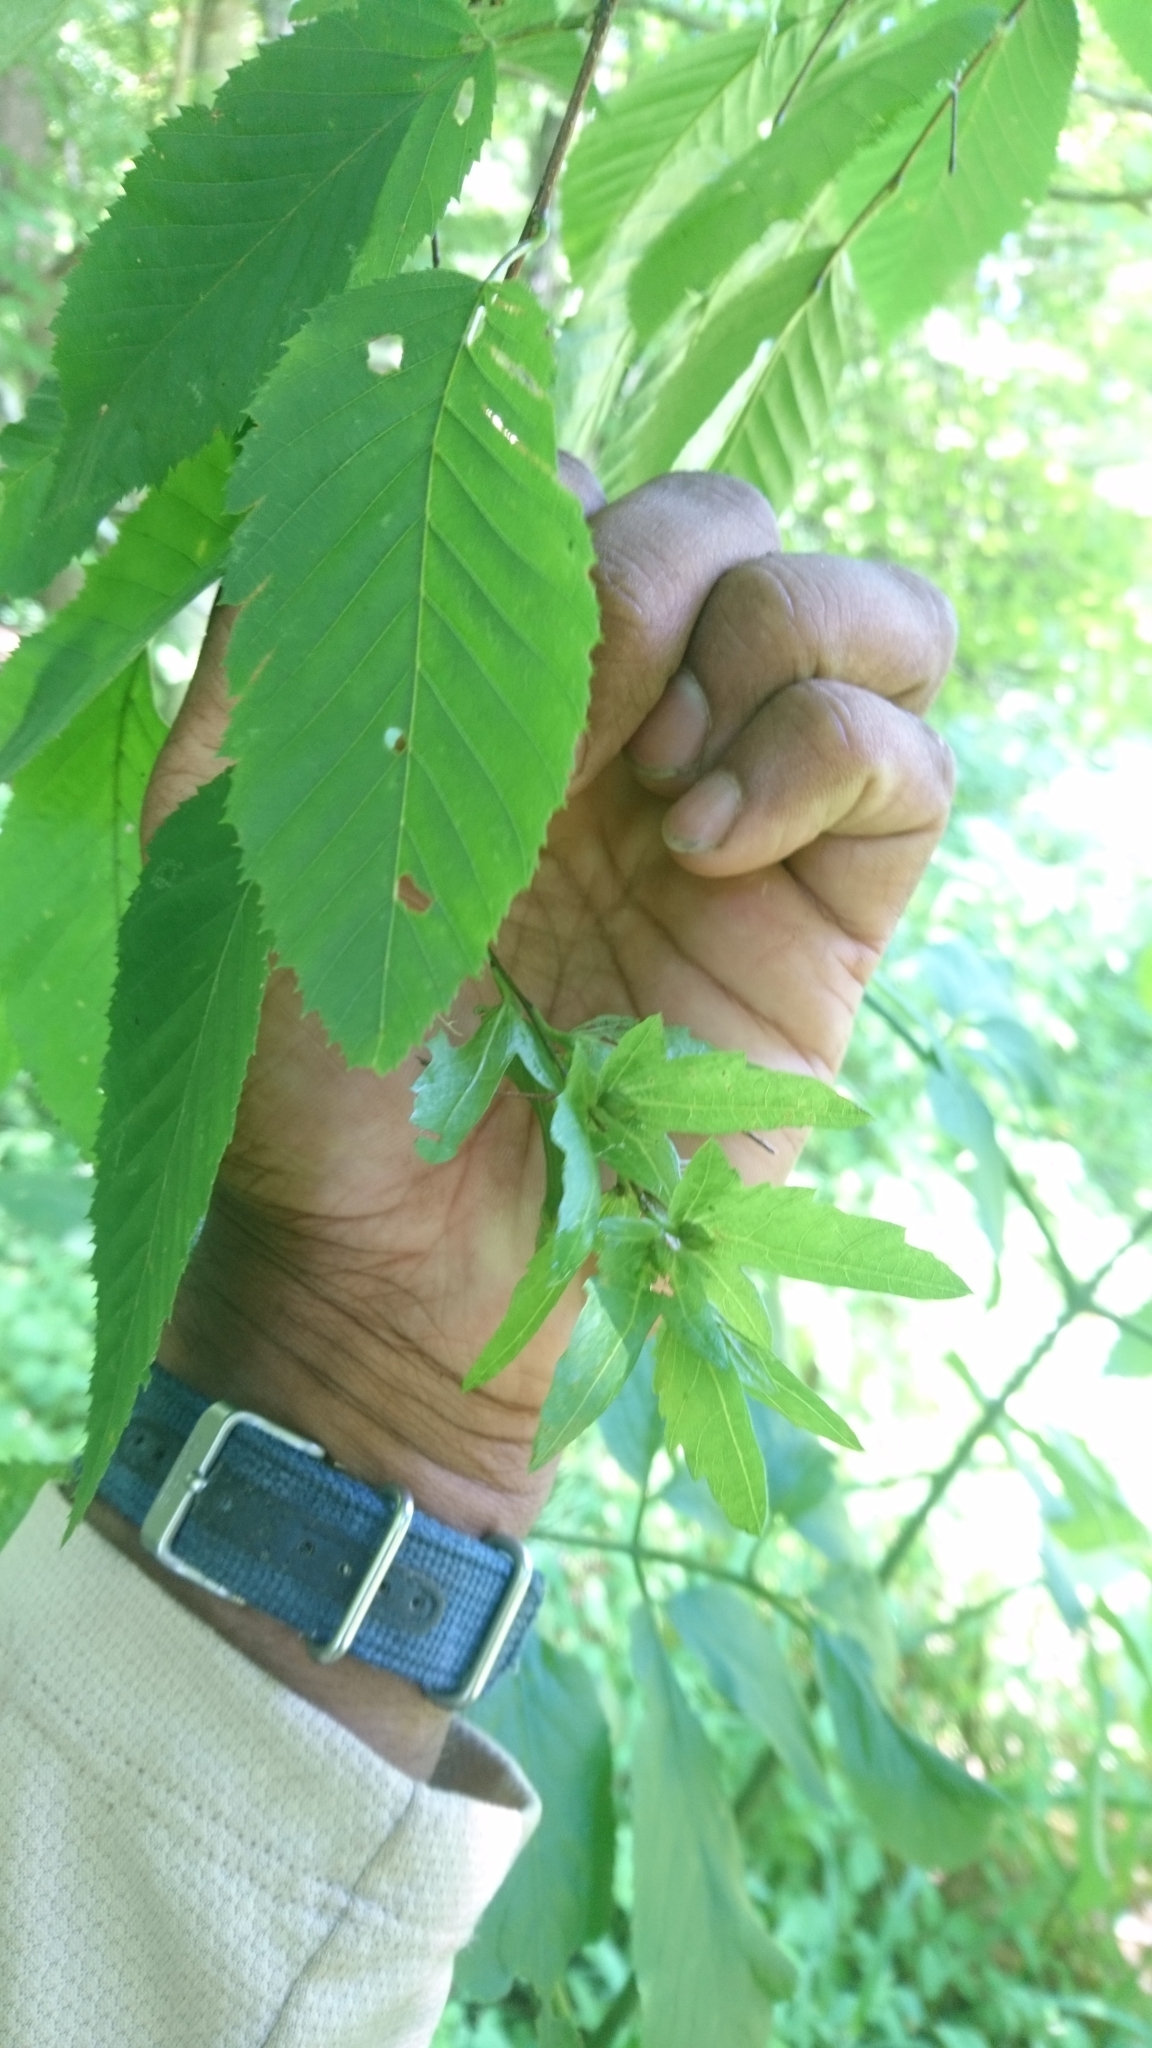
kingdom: Plantae
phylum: Tracheophyta
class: Magnoliopsida
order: Fagales
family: Betulaceae
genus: Carpinus
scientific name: Carpinus caroliniana
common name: American hornbeam
